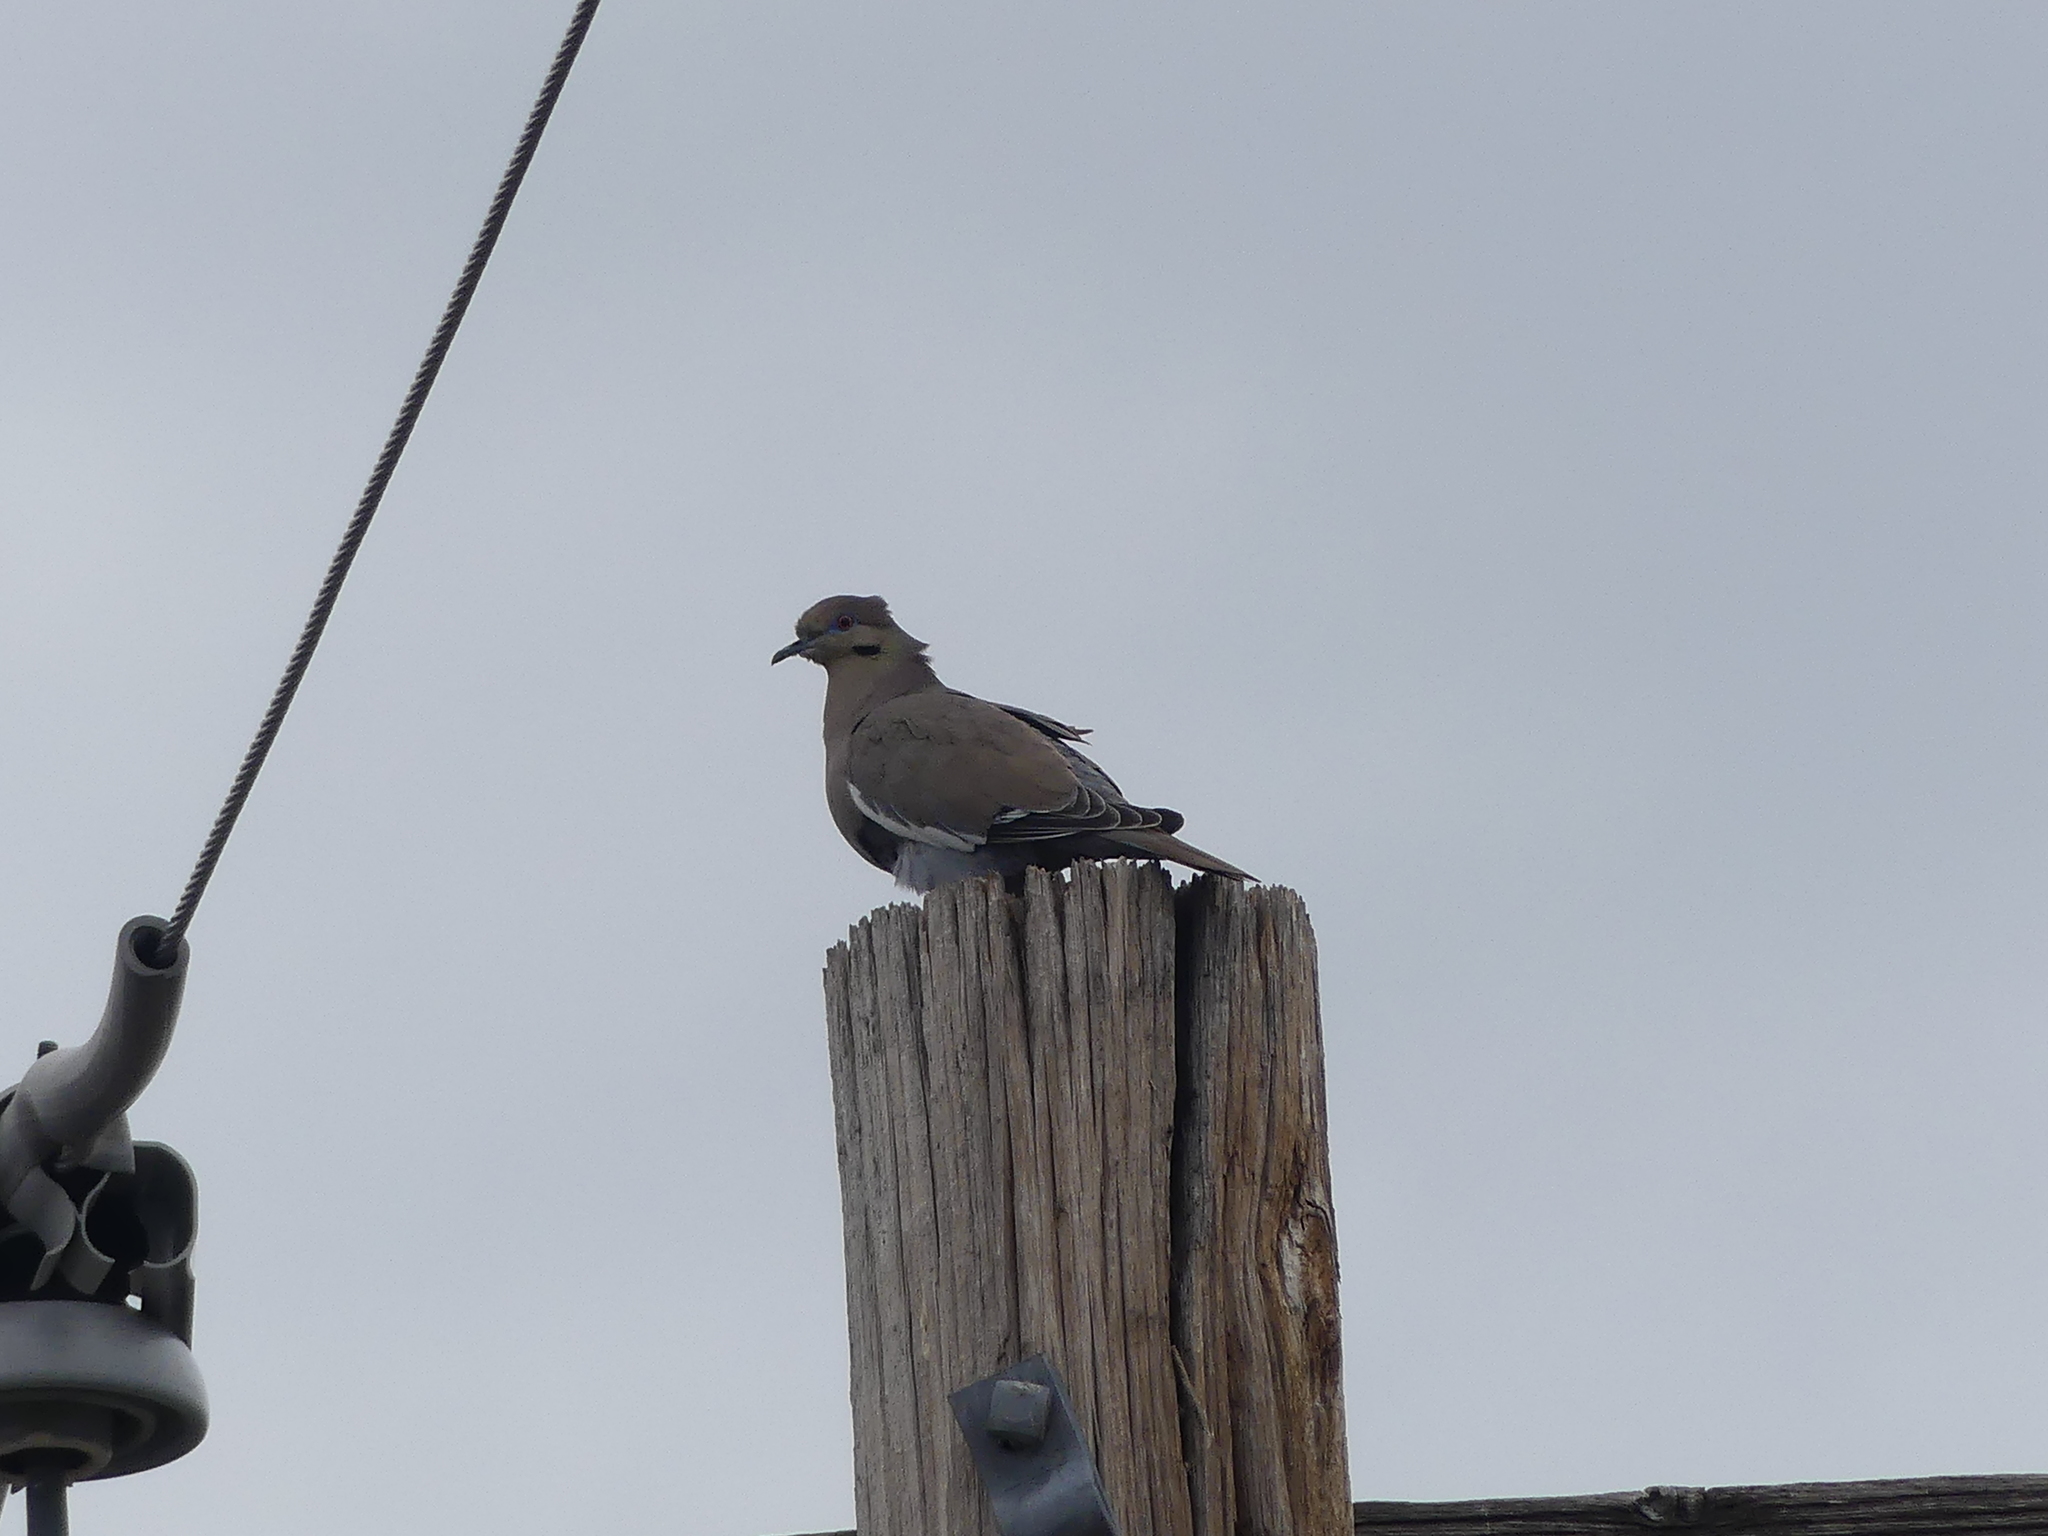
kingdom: Animalia
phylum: Chordata
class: Aves
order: Columbiformes
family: Columbidae
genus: Zenaida
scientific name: Zenaida asiatica
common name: White-winged dove
